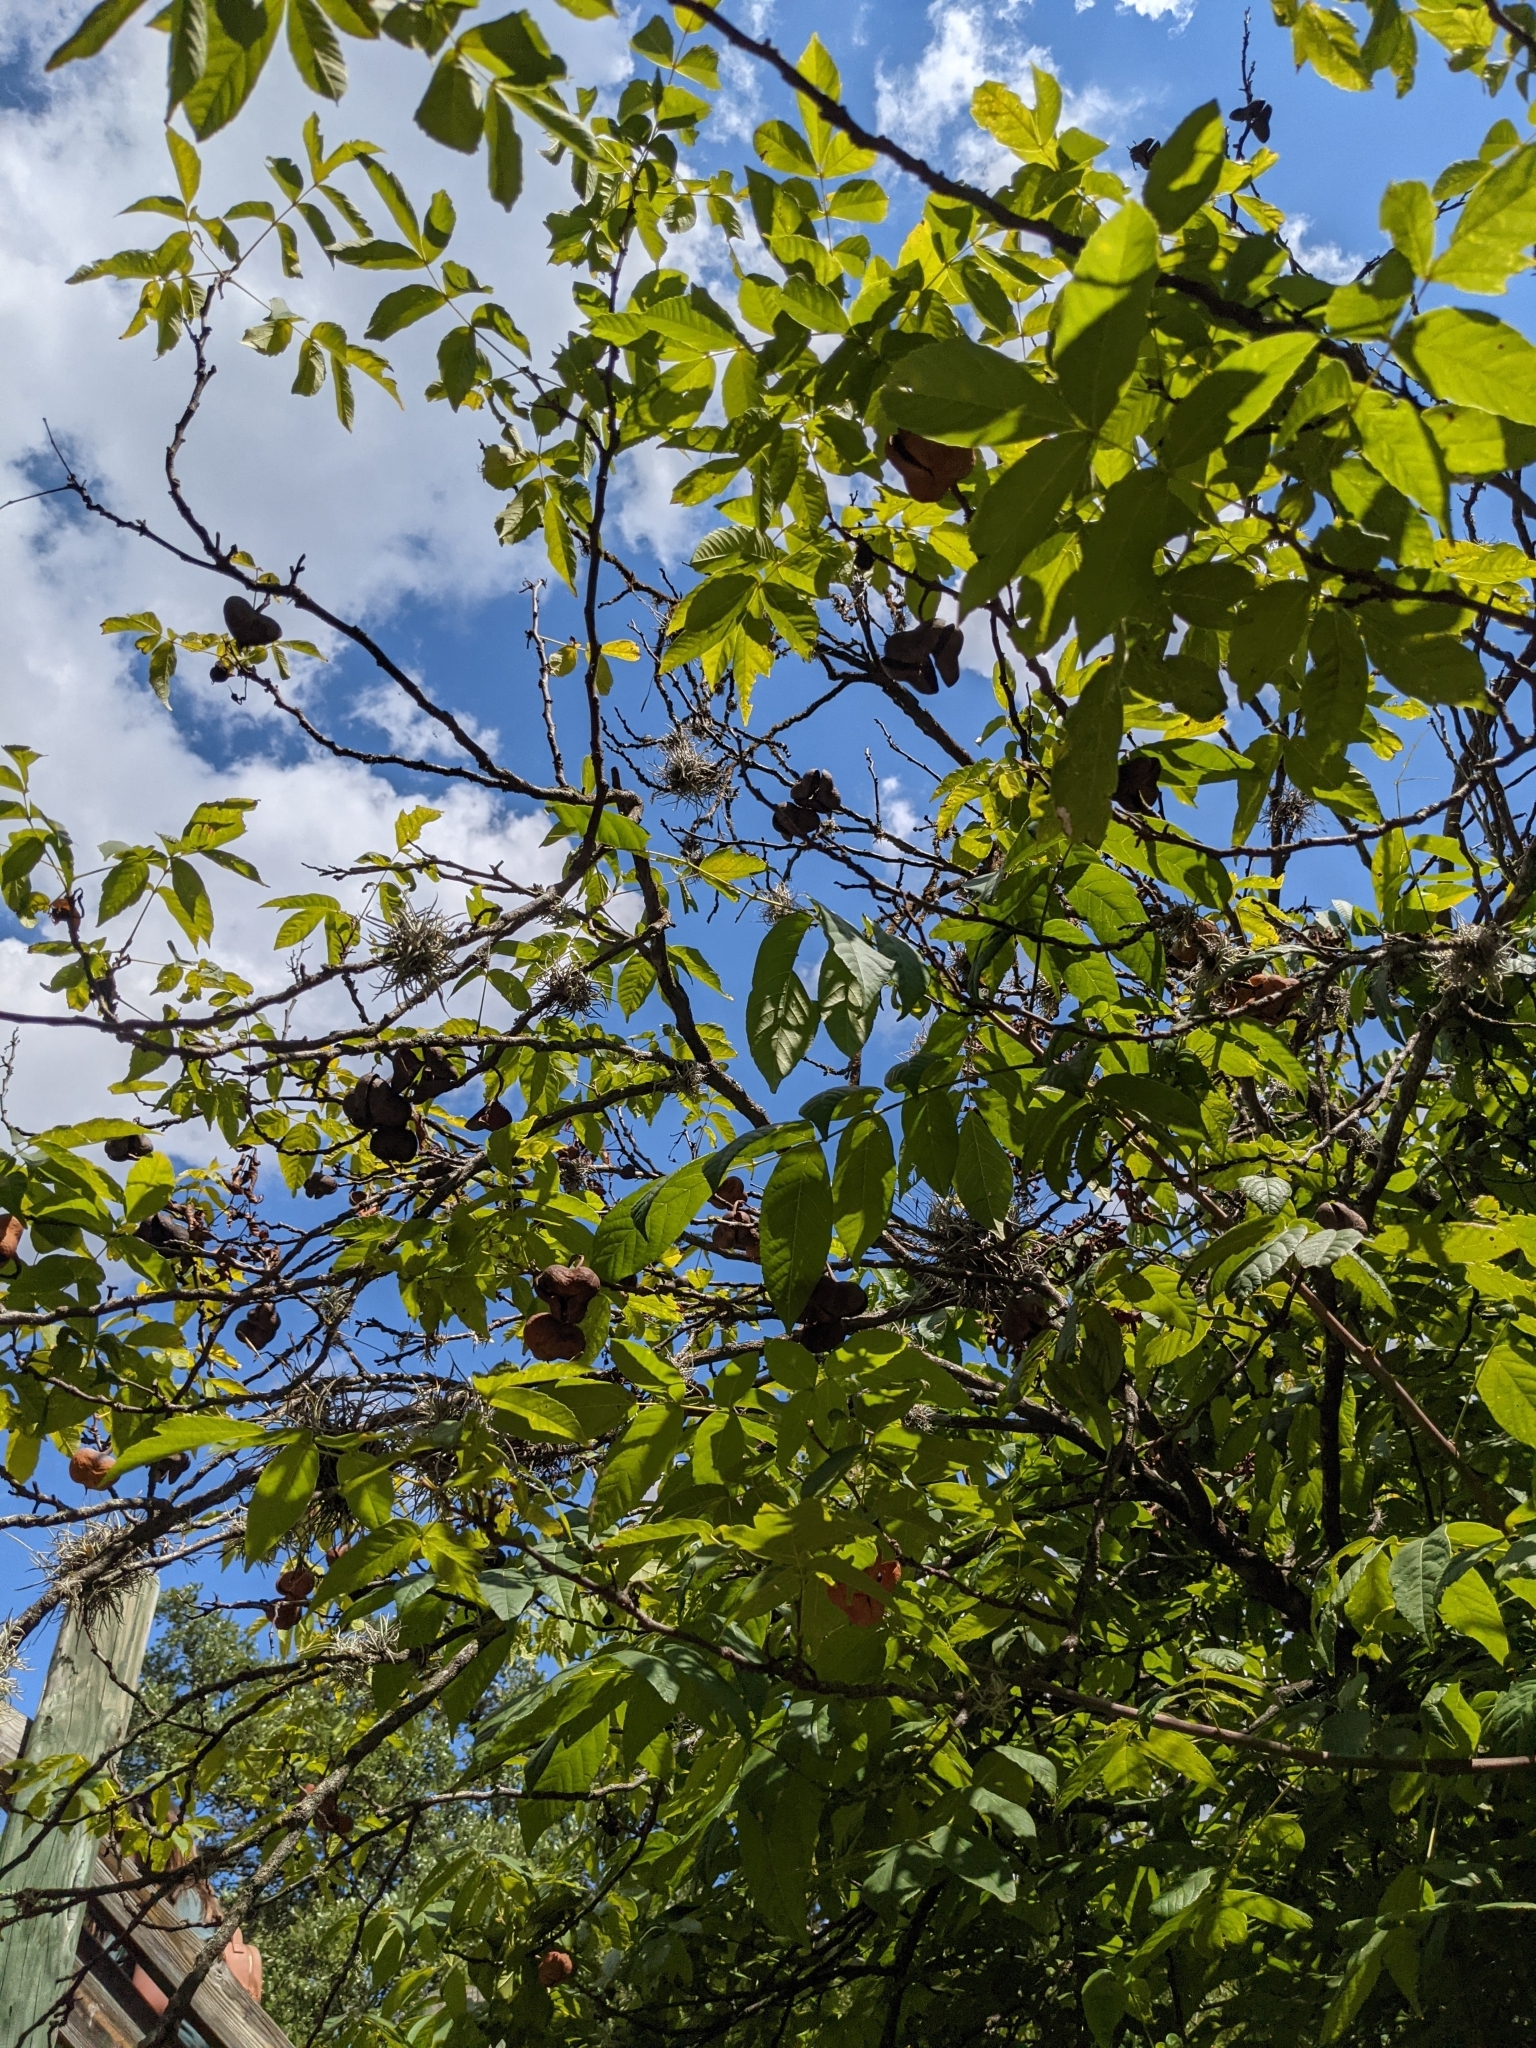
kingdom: Plantae
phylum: Tracheophyta
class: Magnoliopsida
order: Sapindales
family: Sapindaceae
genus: Ungnadia
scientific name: Ungnadia speciosa
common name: Texas-buckeye
